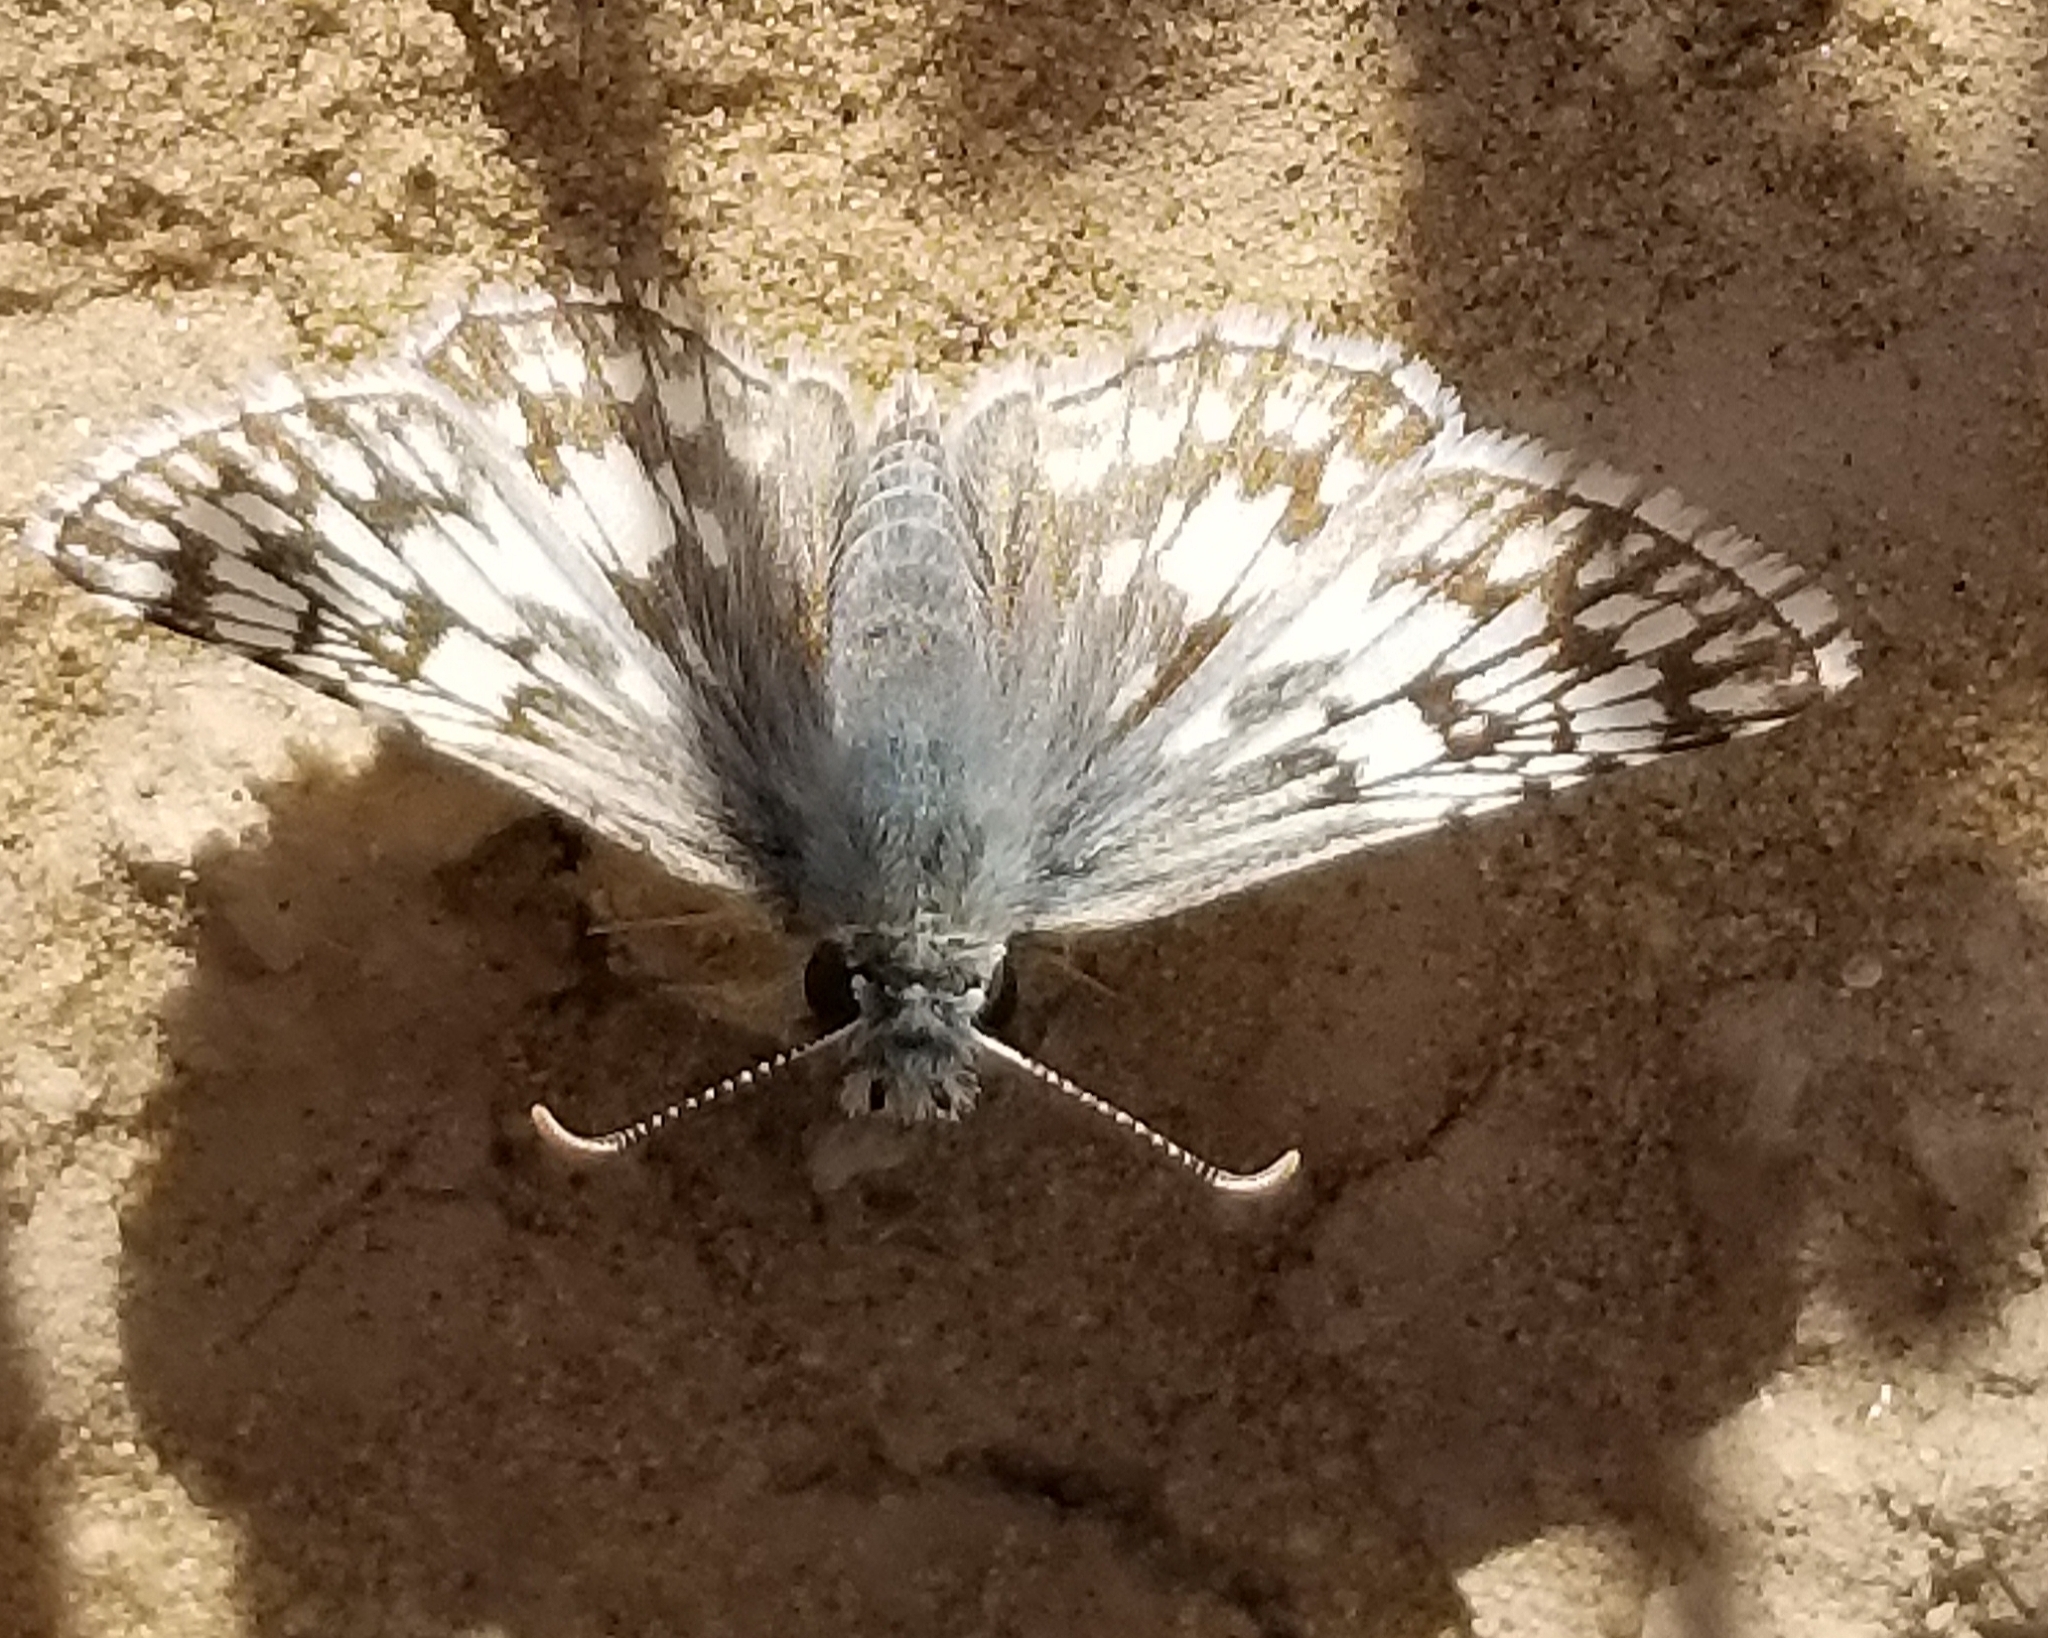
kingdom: Animalia
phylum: Arthropoda
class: Insecta
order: Lepidoptera
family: Hesperiidae
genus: Burnsius
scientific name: Burnsius albezens
